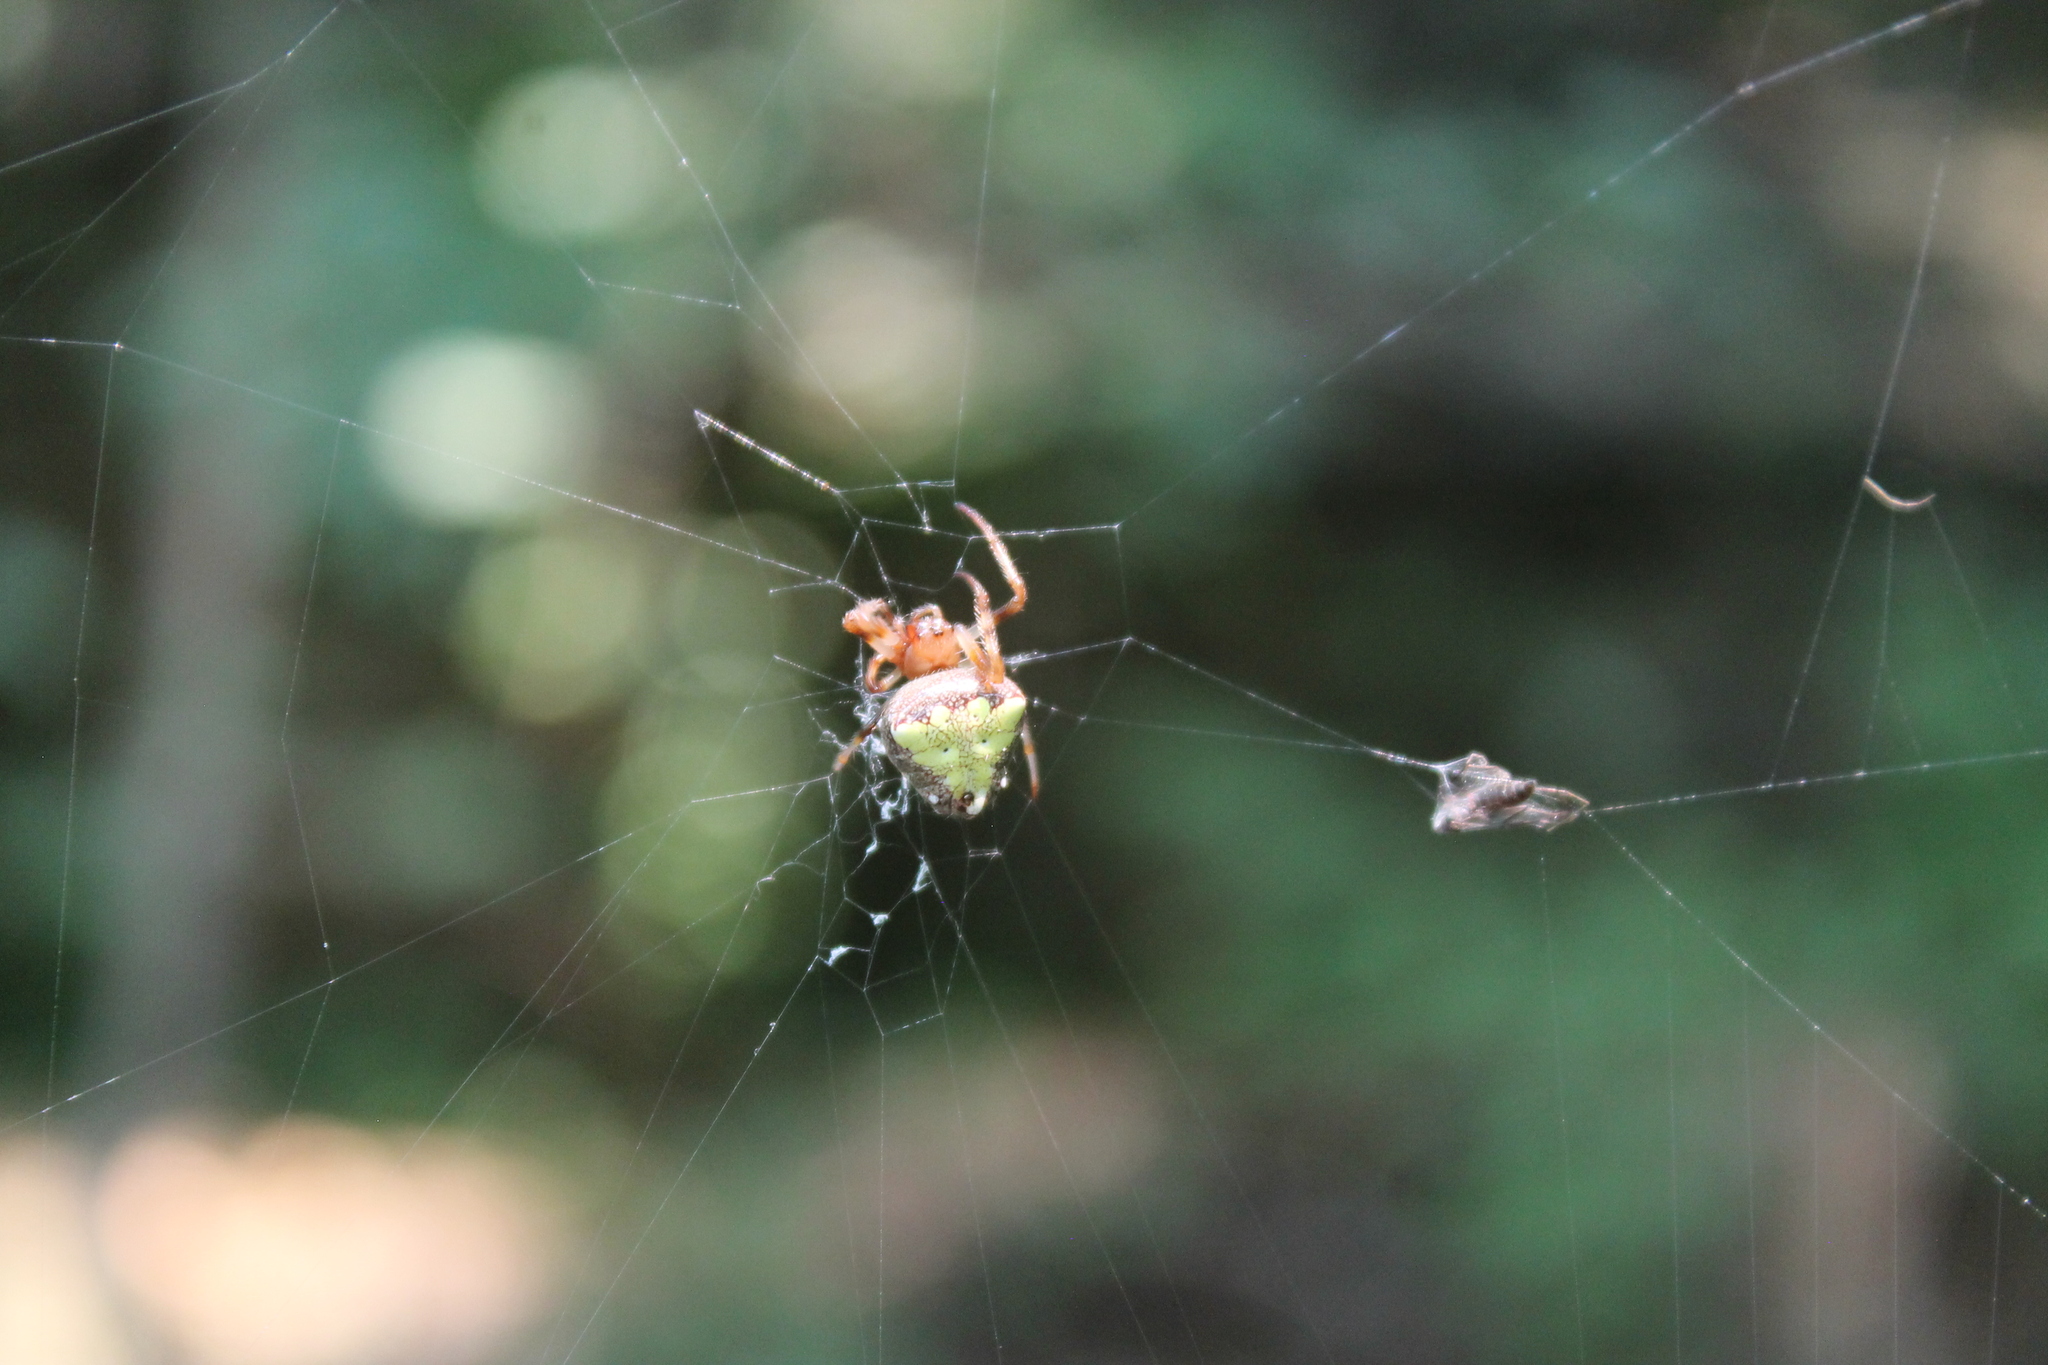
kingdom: Animalia
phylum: Arthropoda
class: Arachnida
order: Araneae
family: Araneidae
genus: Verrucosa
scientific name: Verrucosa arenata
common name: Orb weavers
